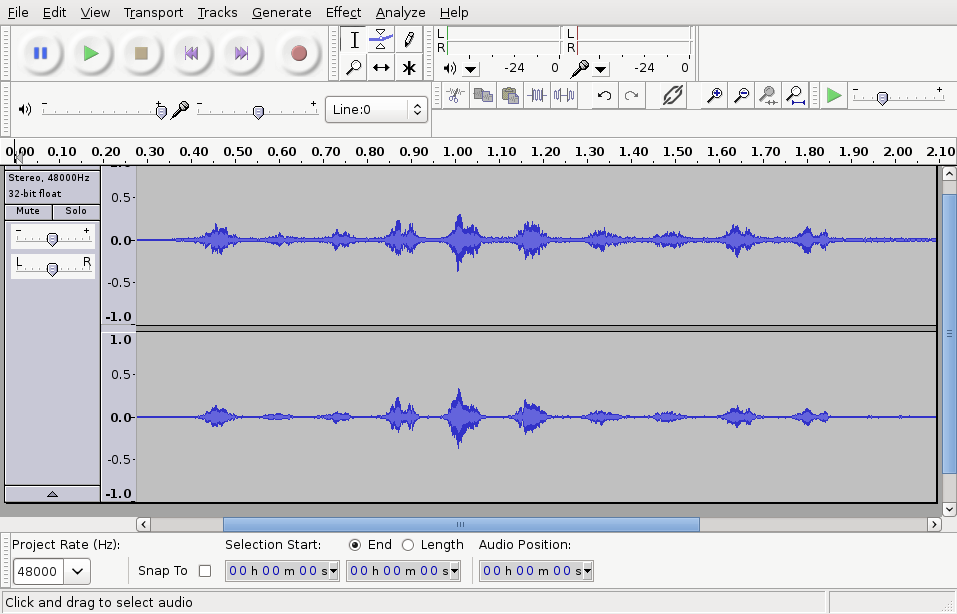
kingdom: Animalia
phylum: Chordata
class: Aves
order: Falconiformes
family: Falconidae
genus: Falco
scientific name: Falco novaeseelandiae
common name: New zealand falcon
